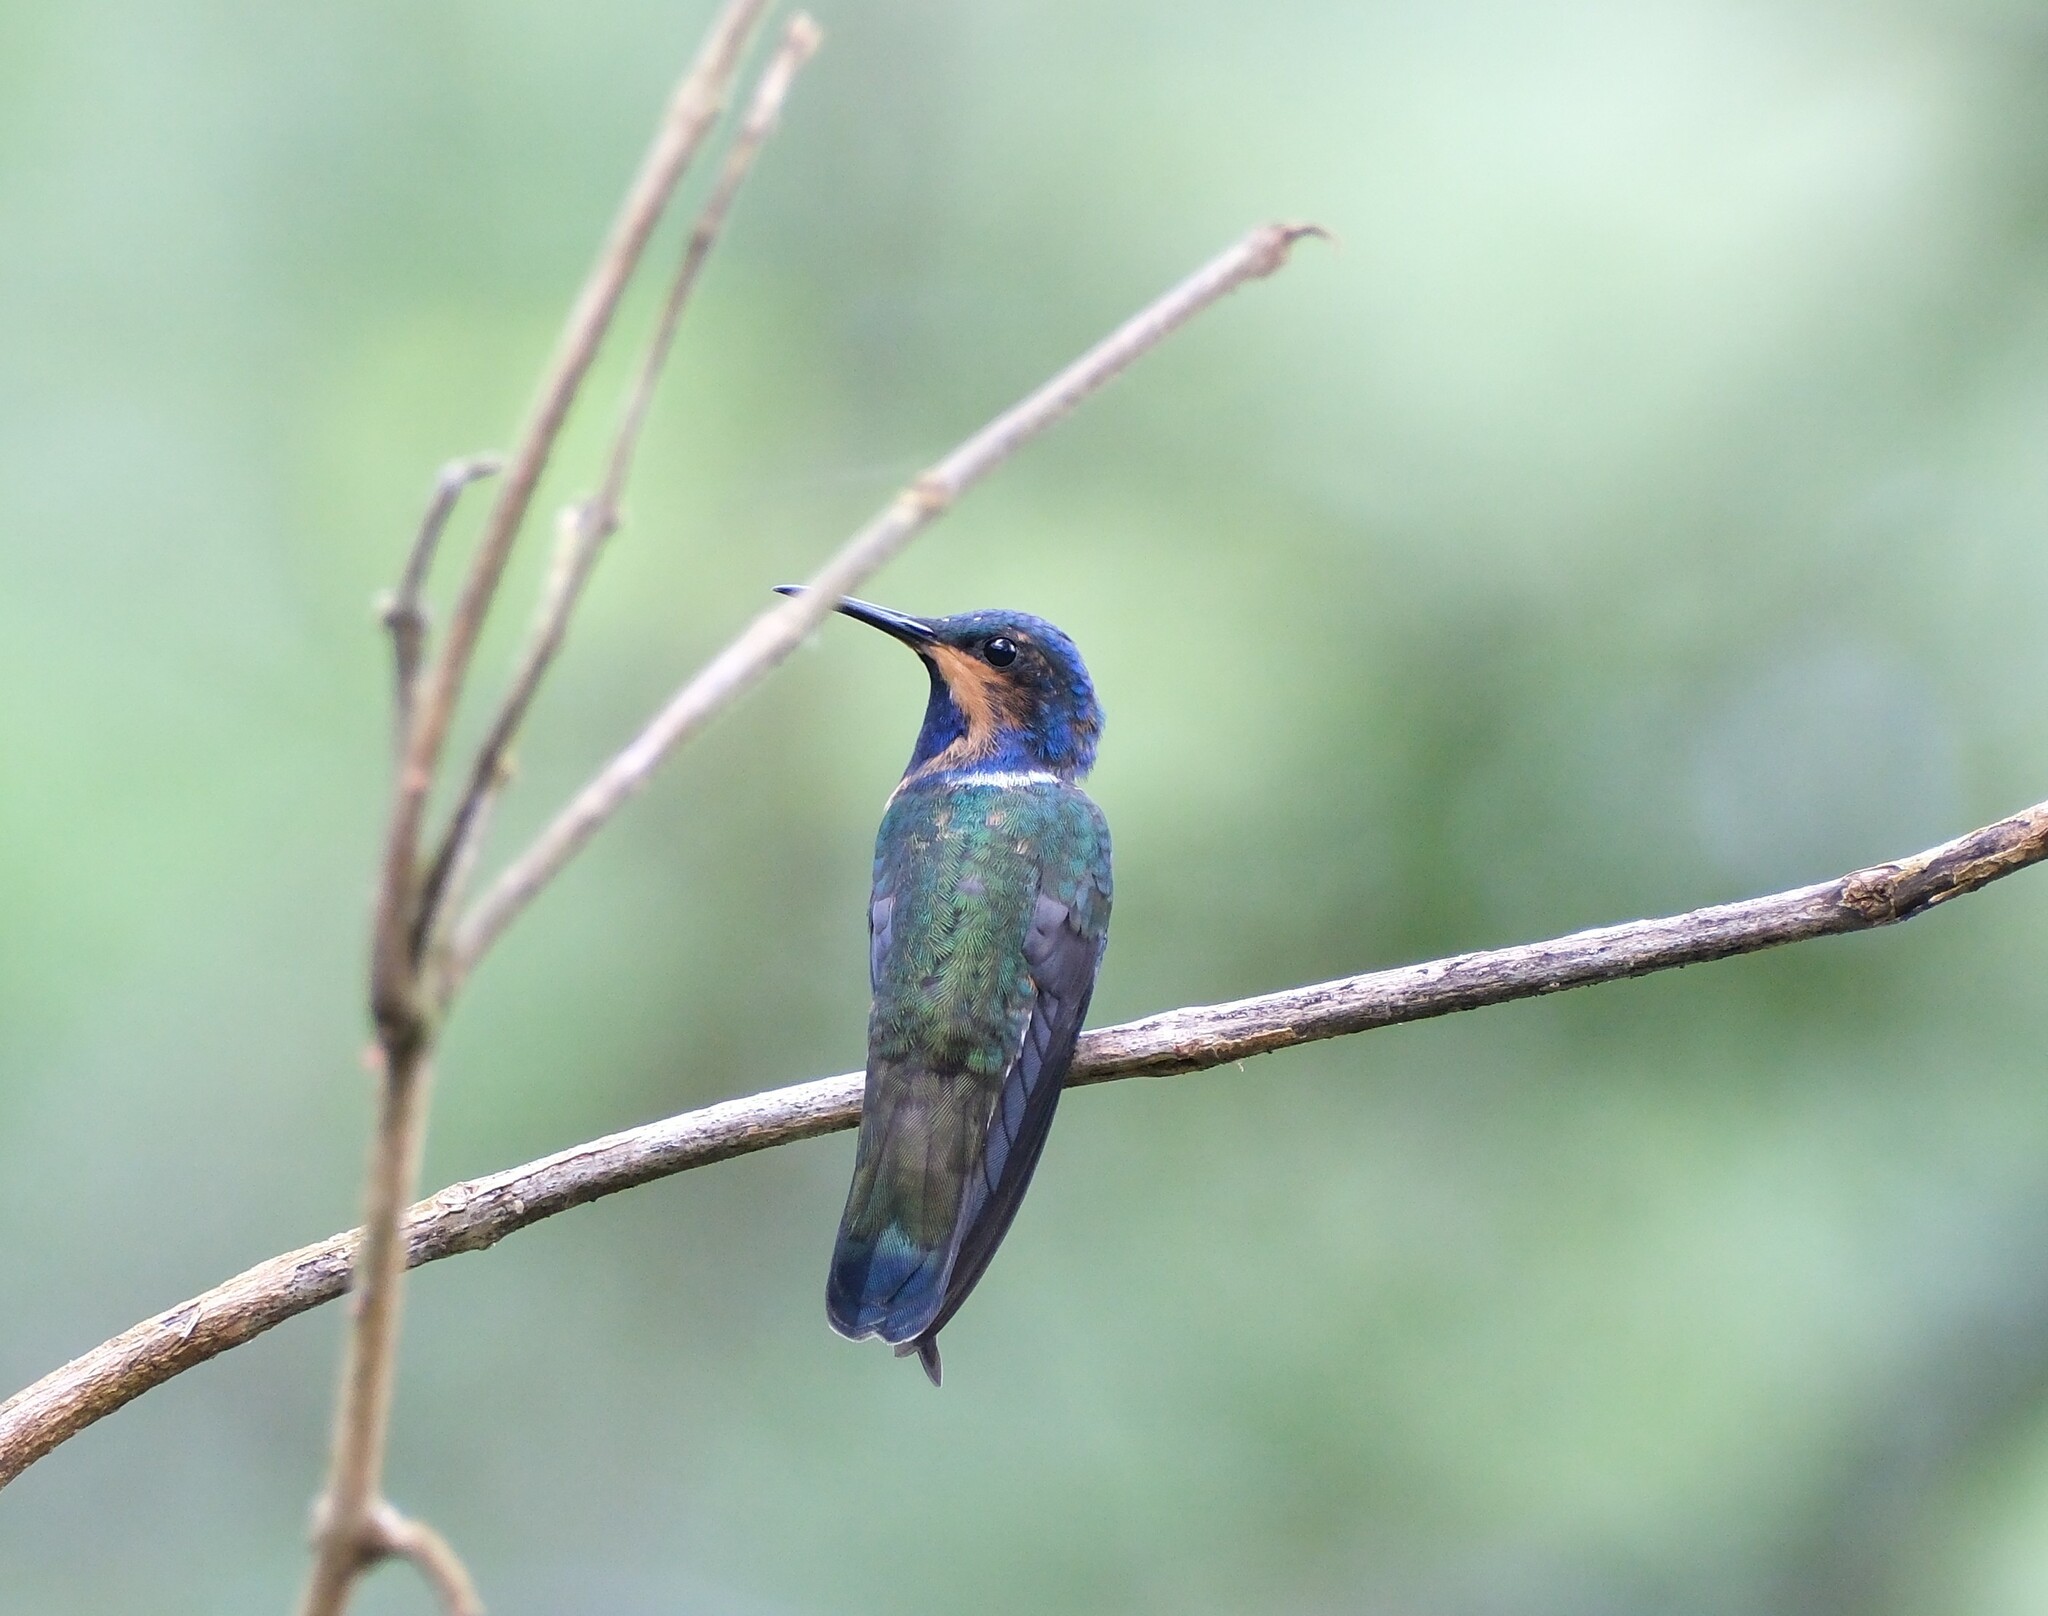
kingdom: Animalia
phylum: Chordata
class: Aves
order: Apodiformes
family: Trochilidae
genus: Florisuga
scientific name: Florisuga mellivora
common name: White-necked jacobin
